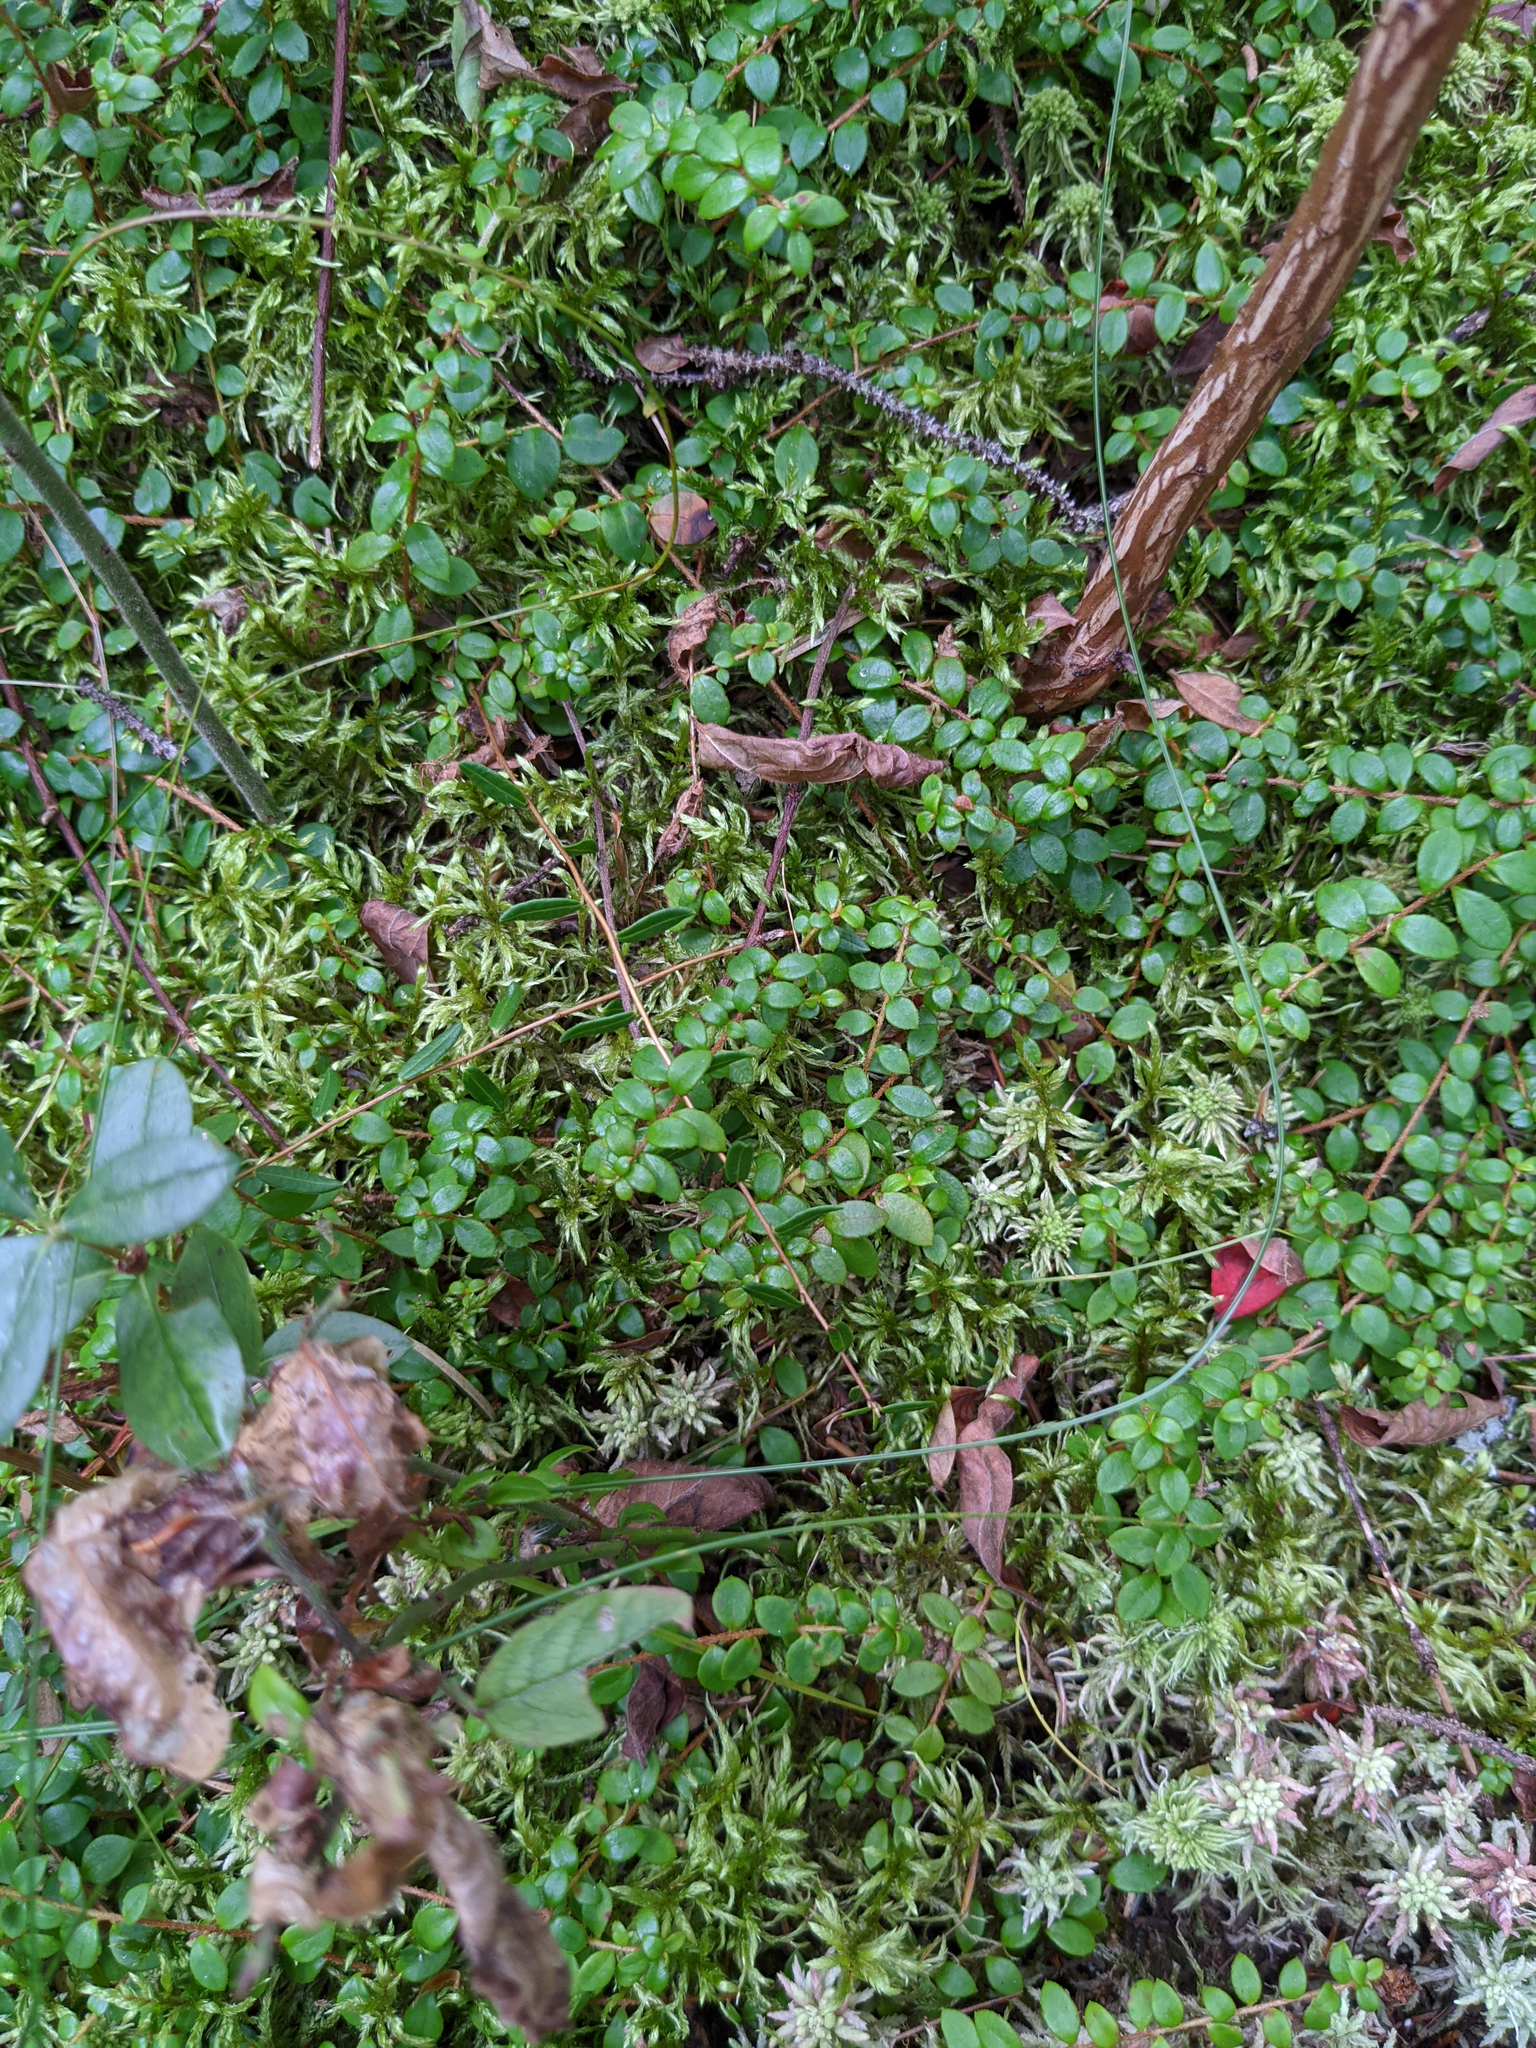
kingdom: Plantae
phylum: Tracheophyta
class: Magnoliopsida
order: Ericales
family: Ericaceae
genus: Gaultheria
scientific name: Gaultheria hispidula
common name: Cancer wintergreen
